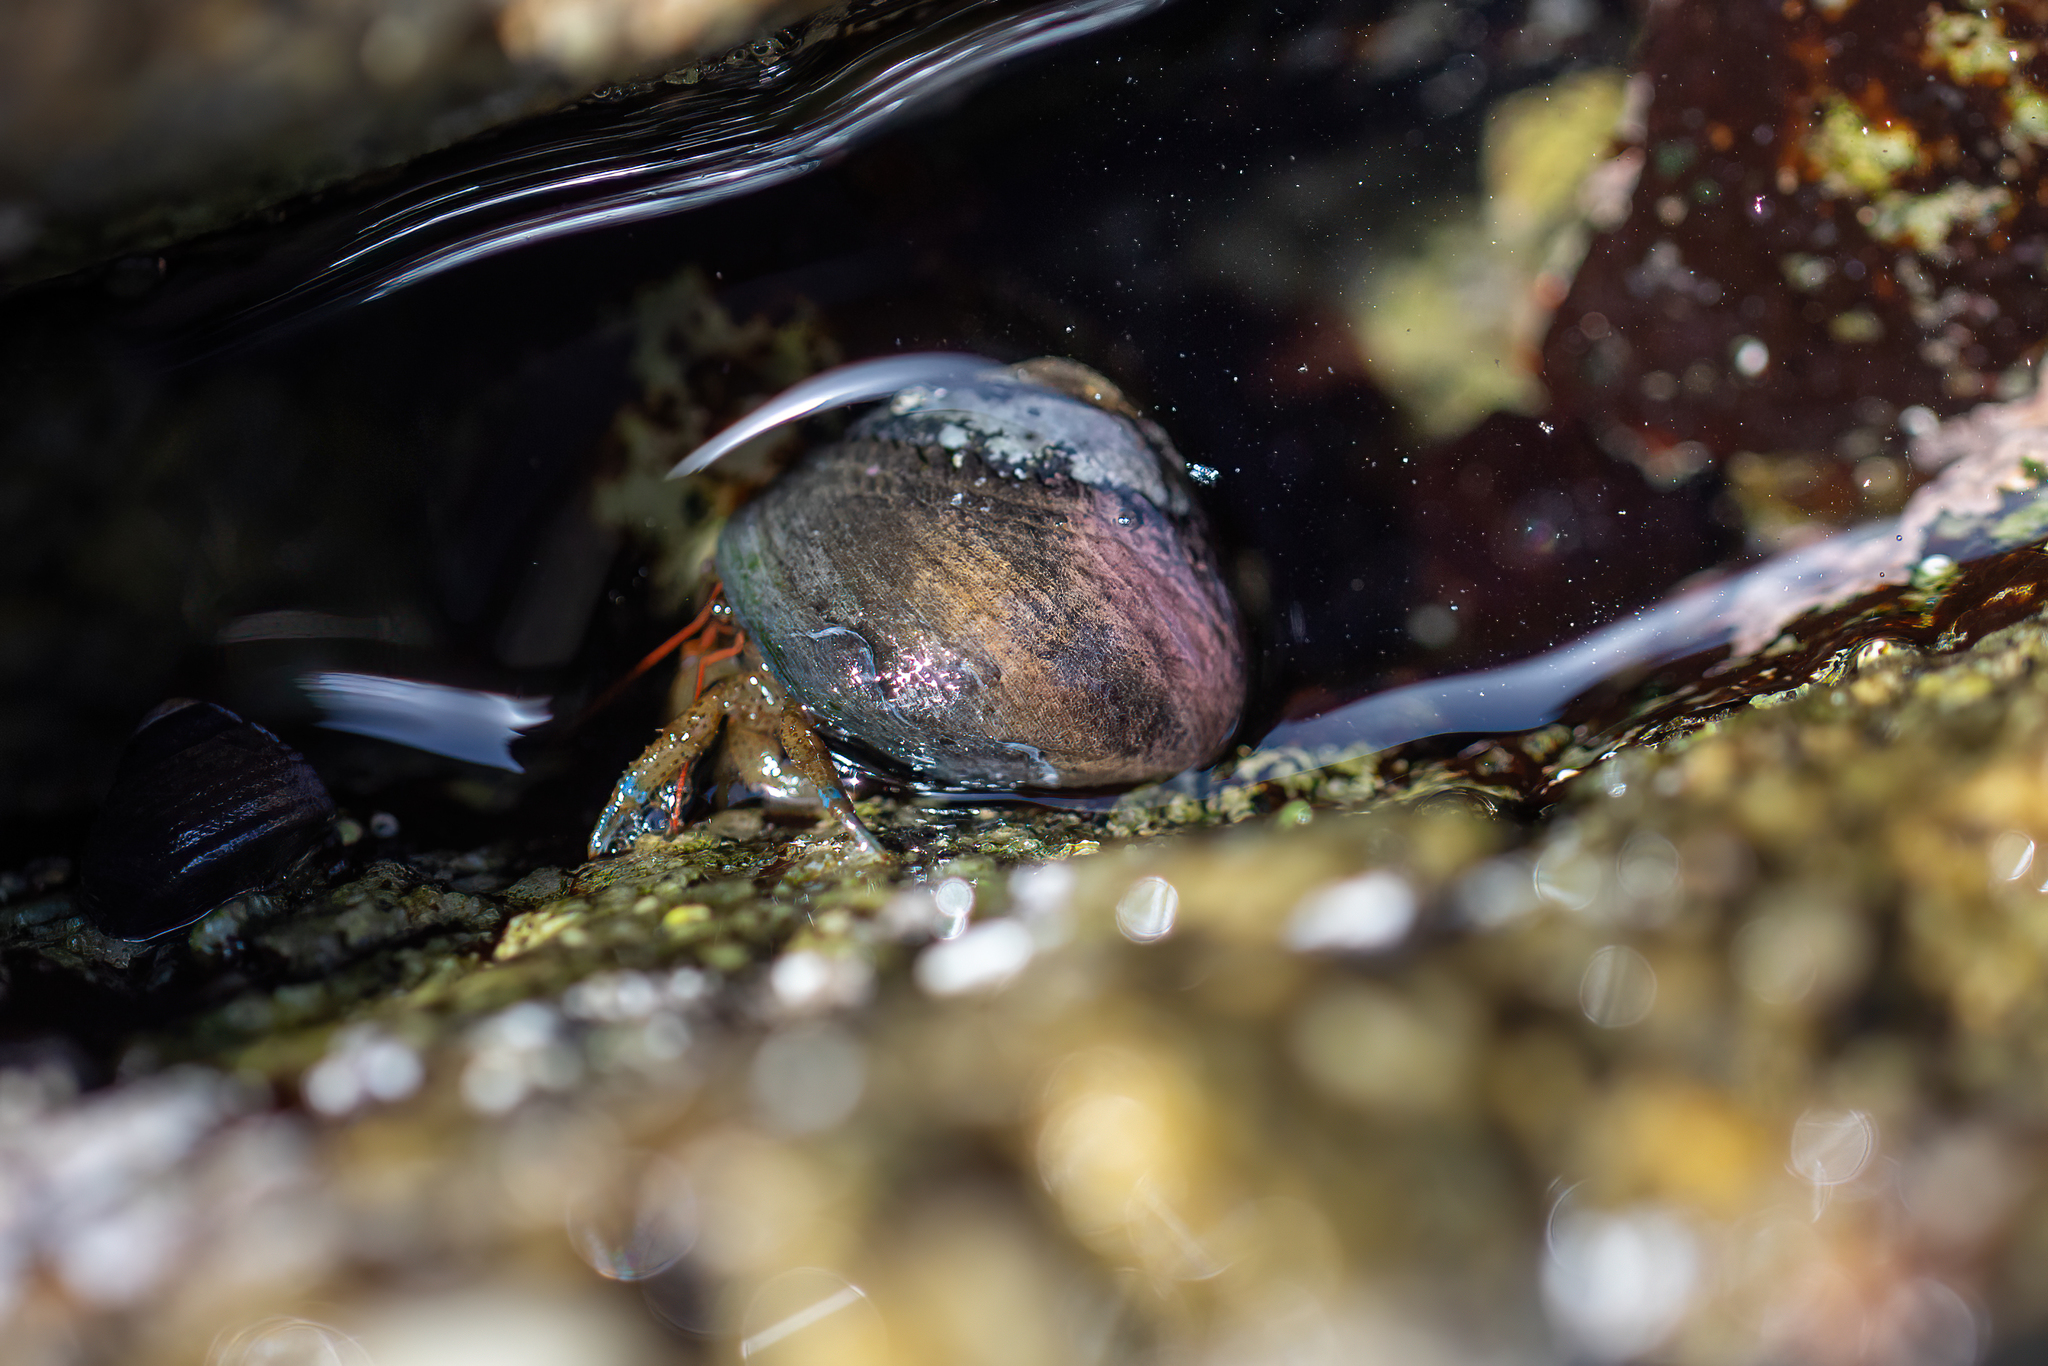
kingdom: Animalia
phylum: Arthropoda
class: Malacostraca
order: Decapoda
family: Paguridae
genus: Pagurus
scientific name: Pagurus samuelis
